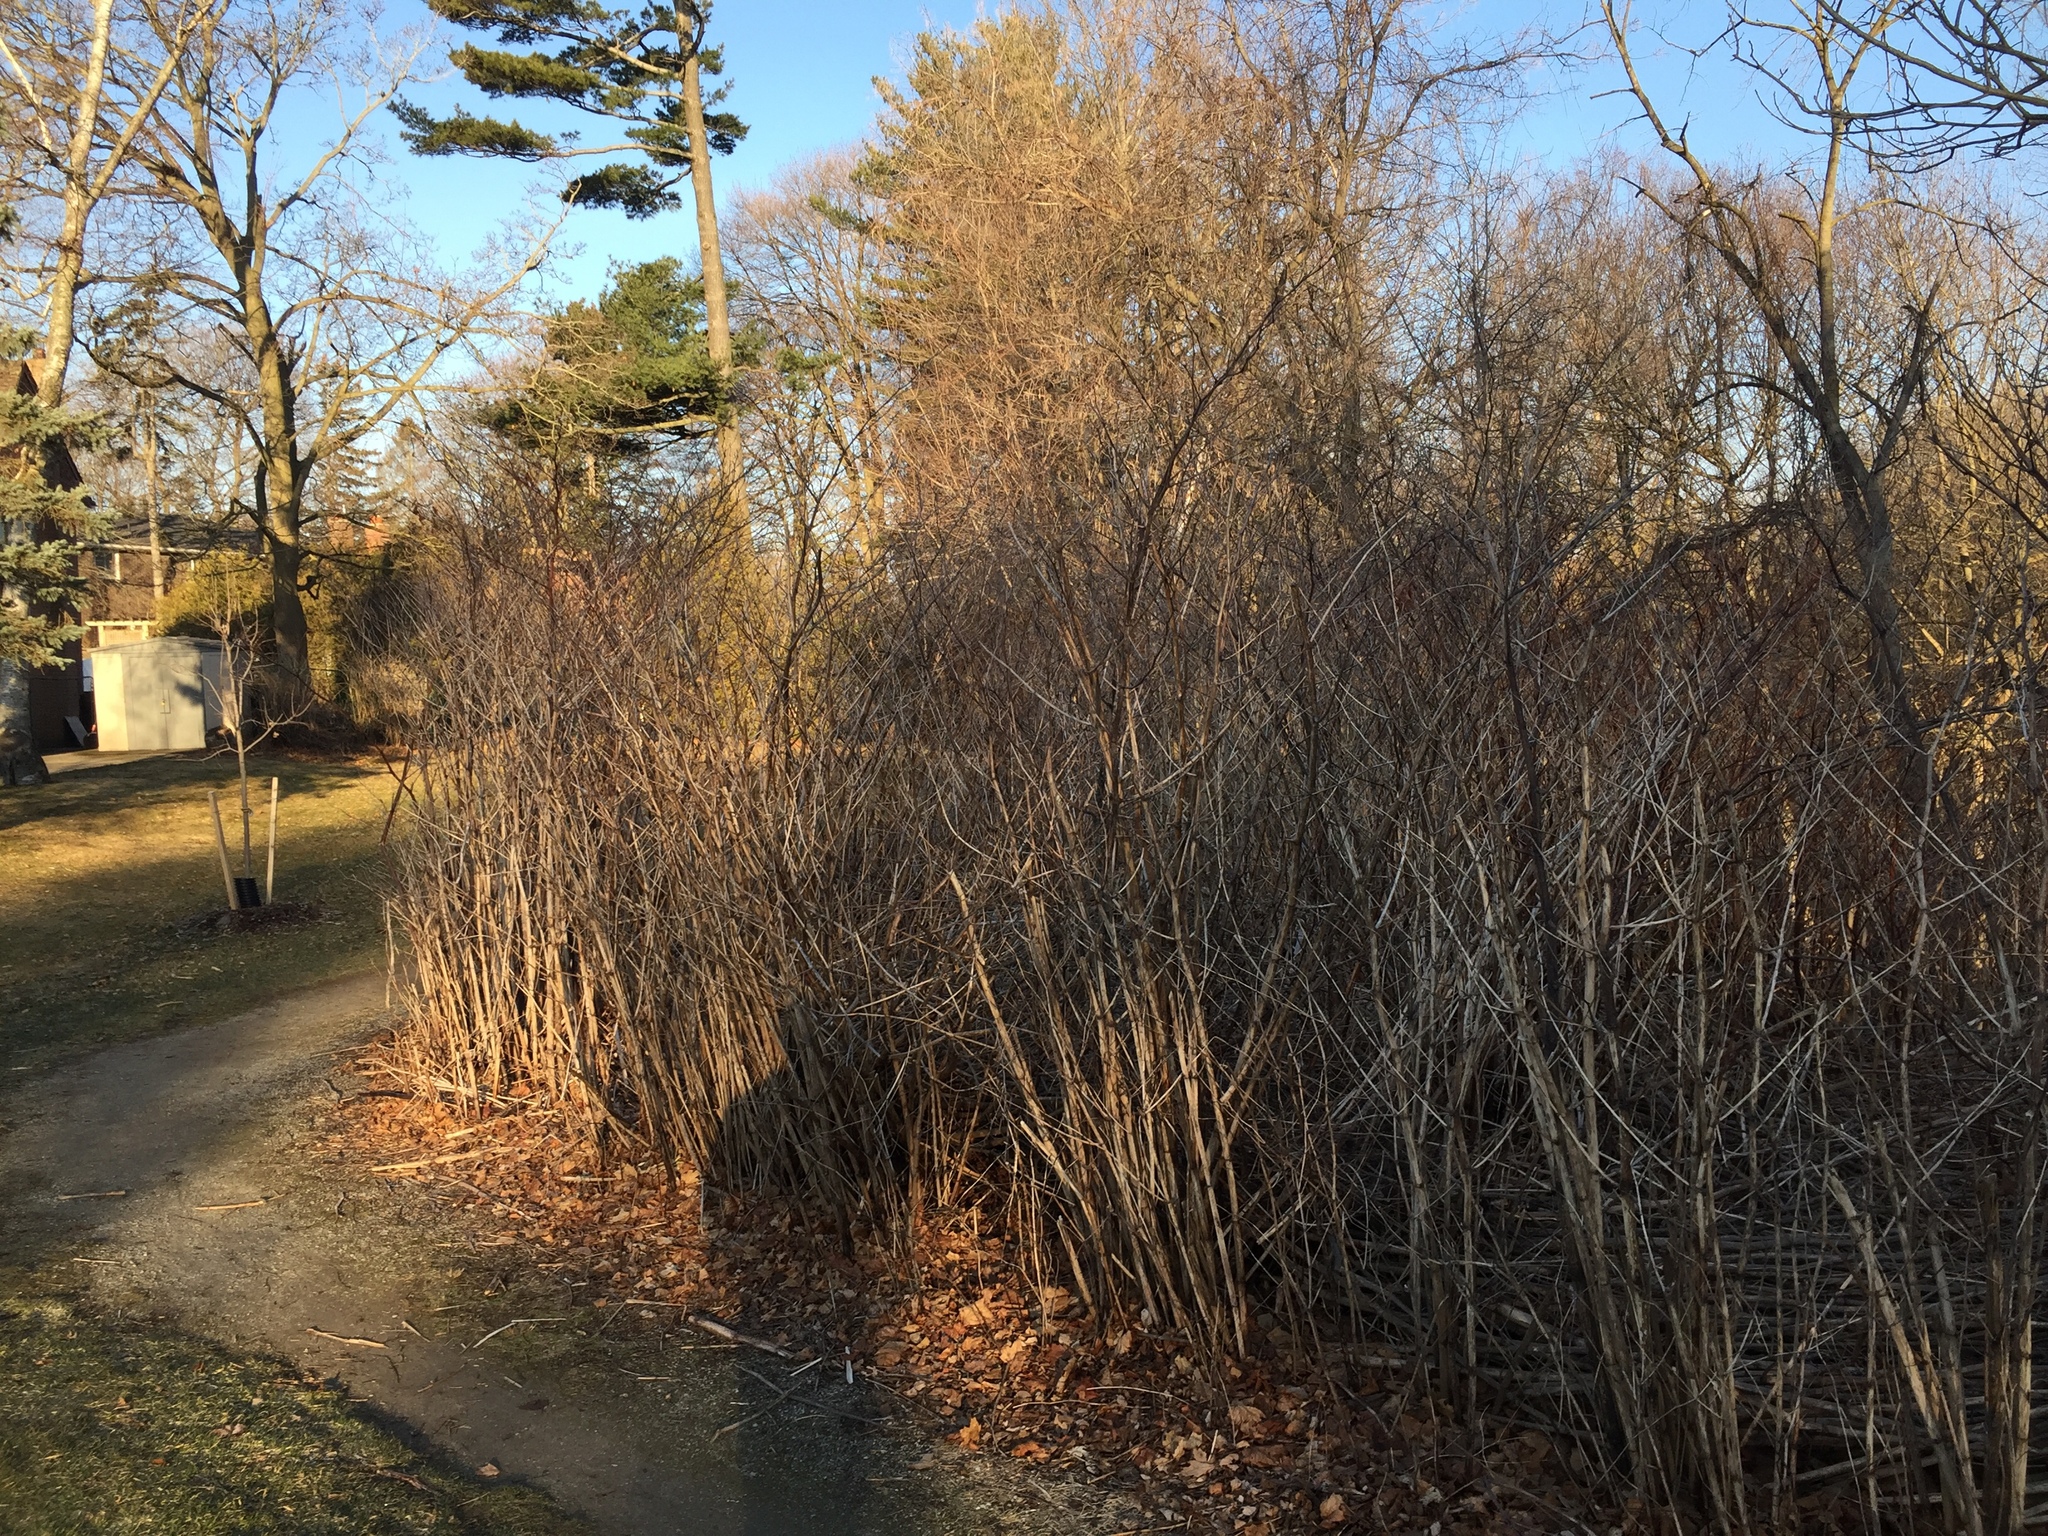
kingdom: Plantae
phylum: Tracheophyta
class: Magnoliopsida
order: Caryophyllales
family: Polygonaceae
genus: Reynoutria
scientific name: Reynoutria japonica
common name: Japanese knotweed
